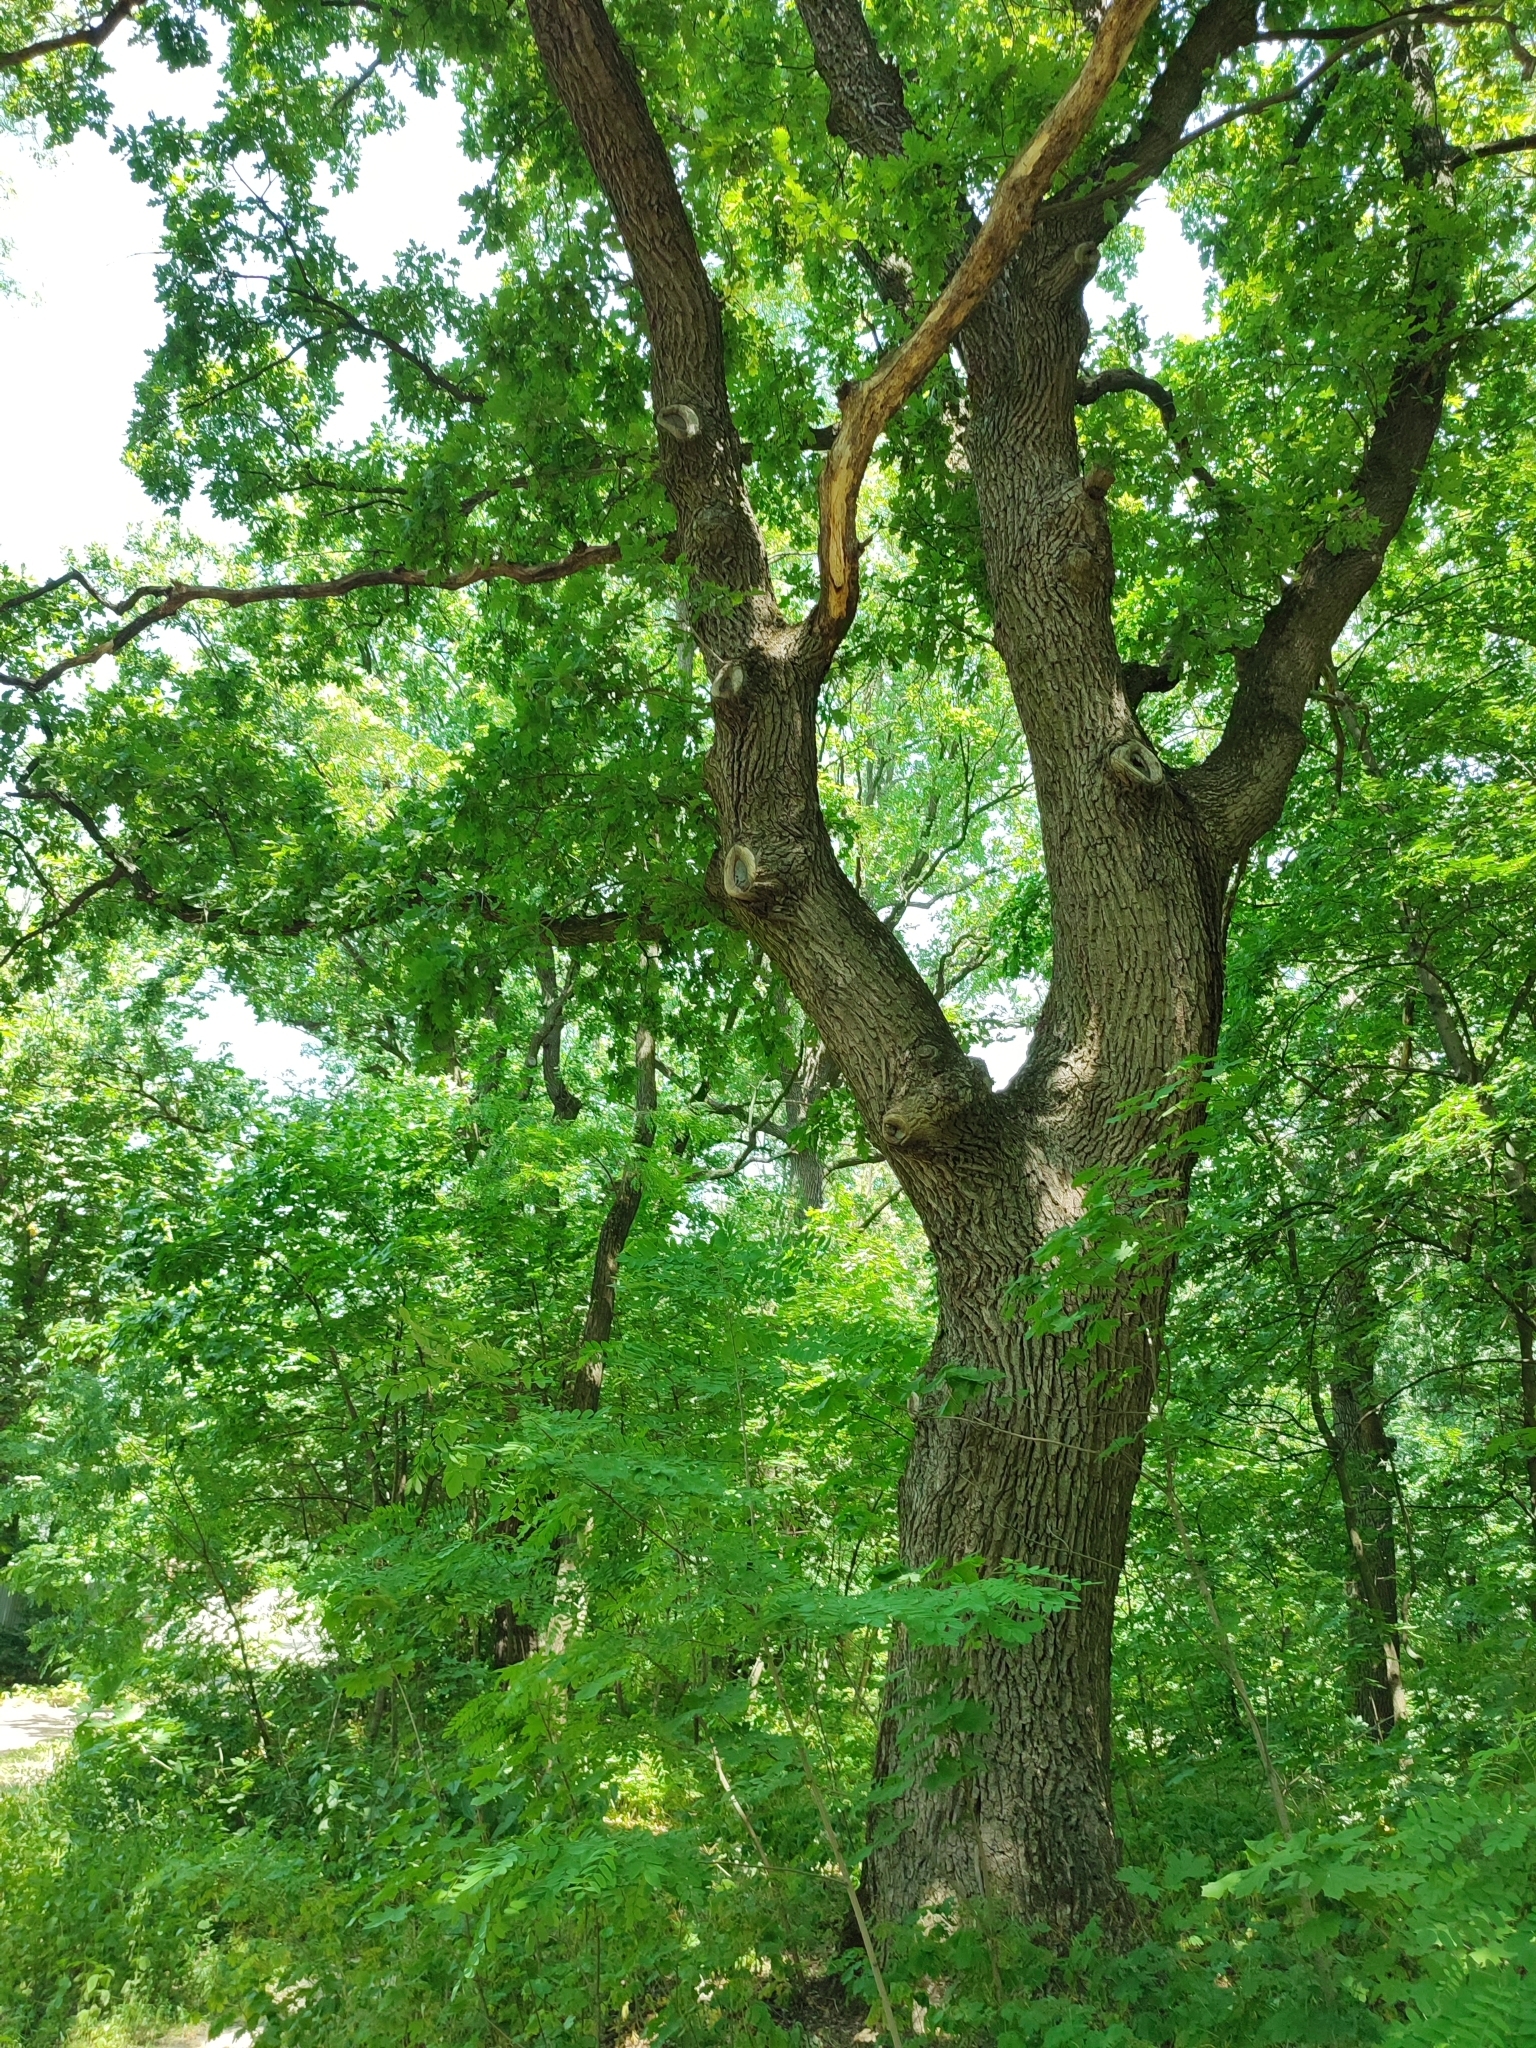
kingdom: Plantae
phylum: Tracheophyta
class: Magnoliopsida
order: Fagales
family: Fagaceae
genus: Quercus
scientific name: Quercus robur
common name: Pedunculate oak
